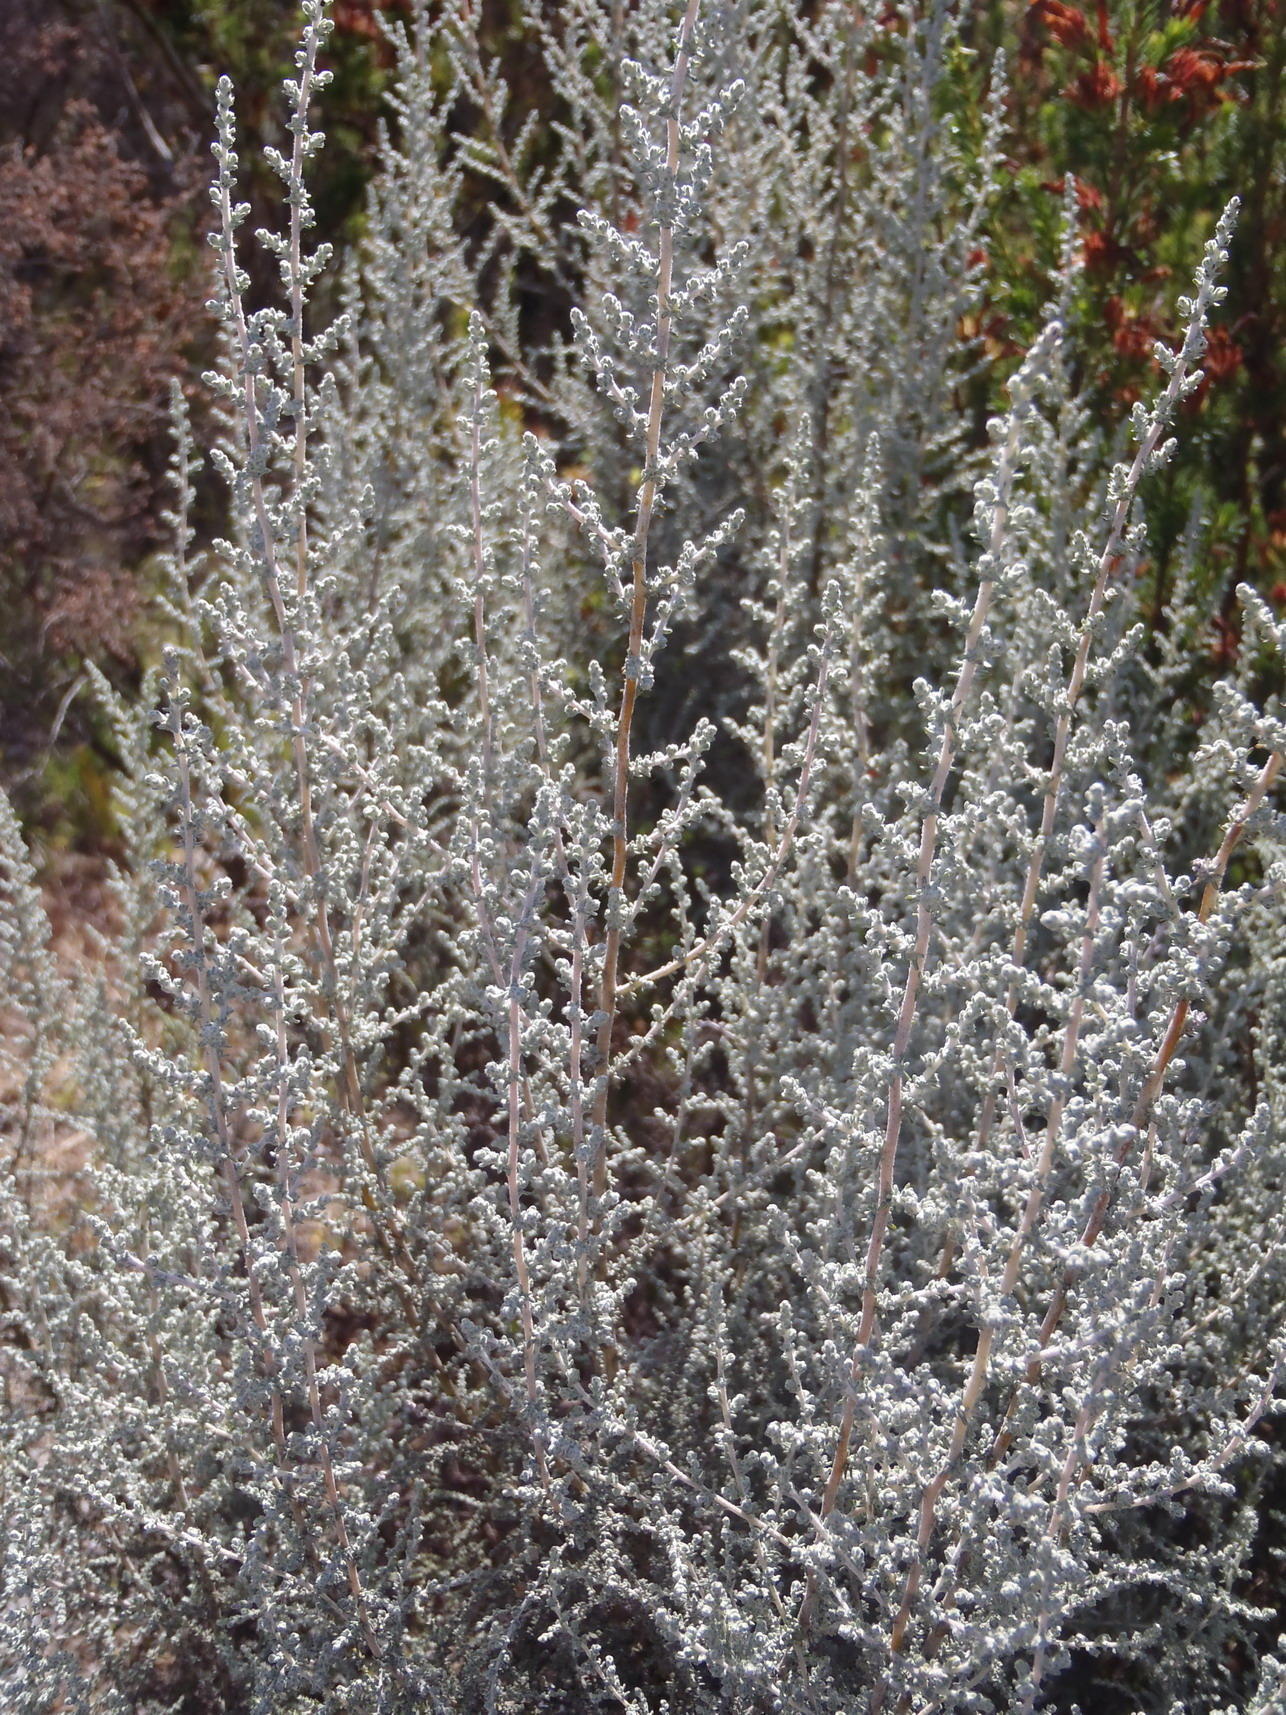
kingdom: Plantae
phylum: Tracheophyta
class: Magnoliopsida
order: Asterales
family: Asteraceae
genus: Seriphium
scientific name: Seriphium plumosum
